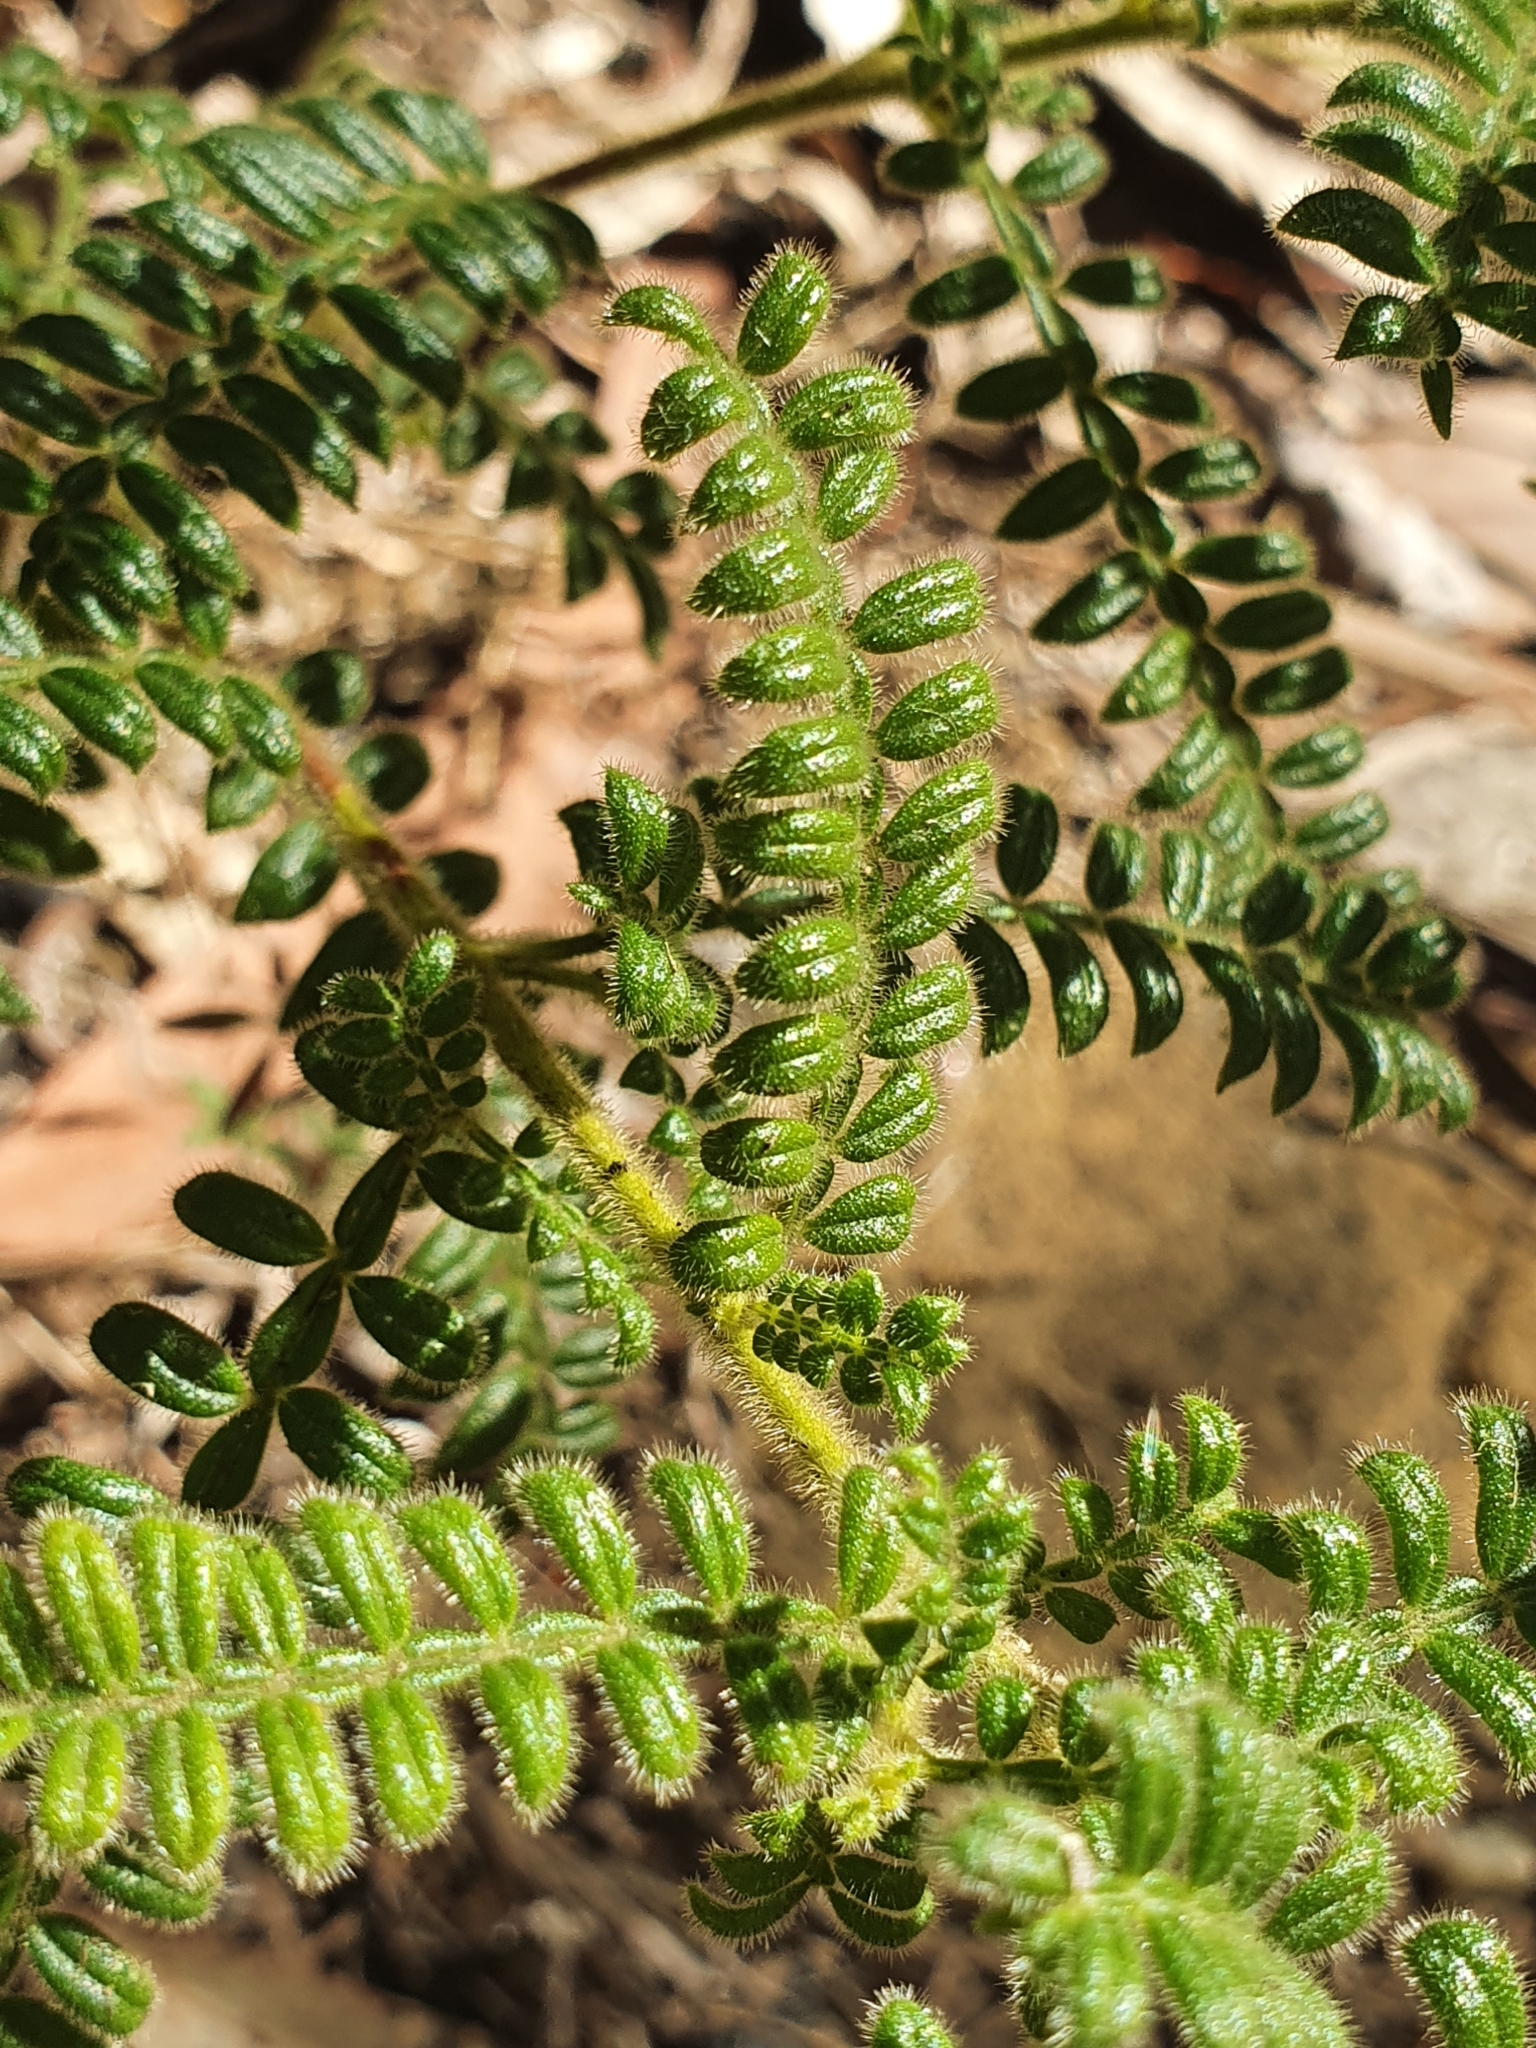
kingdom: Plantae
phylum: Tracheophyta
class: Magnoliopsida
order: Sapindales
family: Sapindaceae
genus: Dodonaea
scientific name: Dodonaea pinnata
